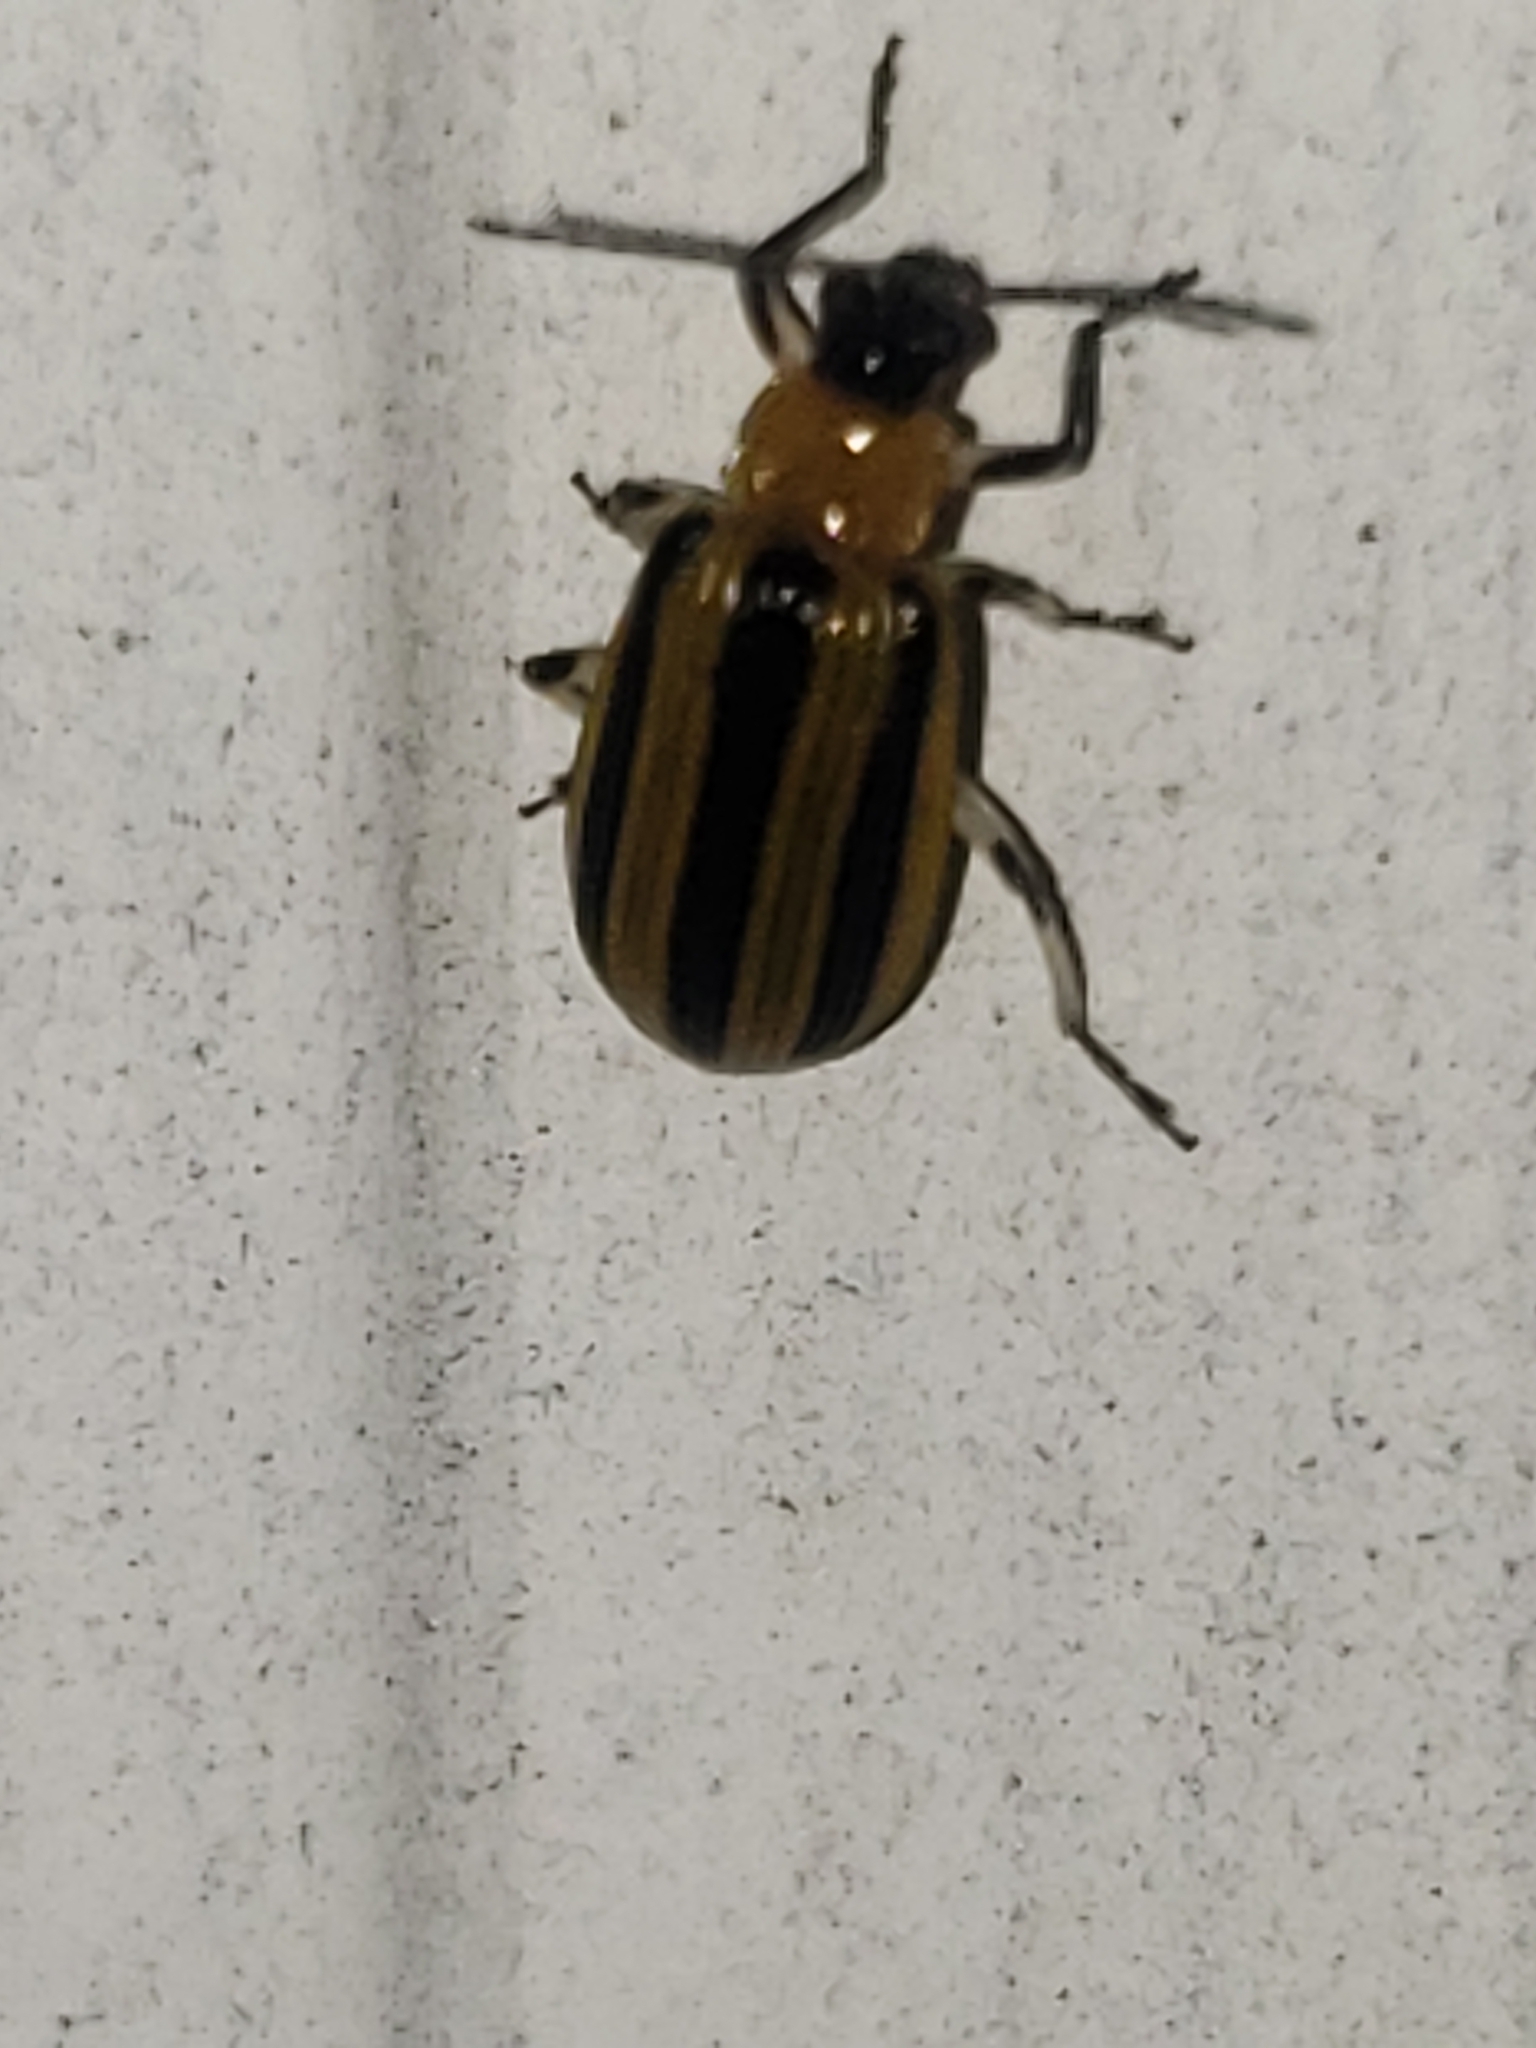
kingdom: Animalia
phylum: Arthropoda
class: Insecta
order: Coleoptera
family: Chrysomelidae
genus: Acalymma
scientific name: Acalymma vittatum
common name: Striped cucumber beetle
